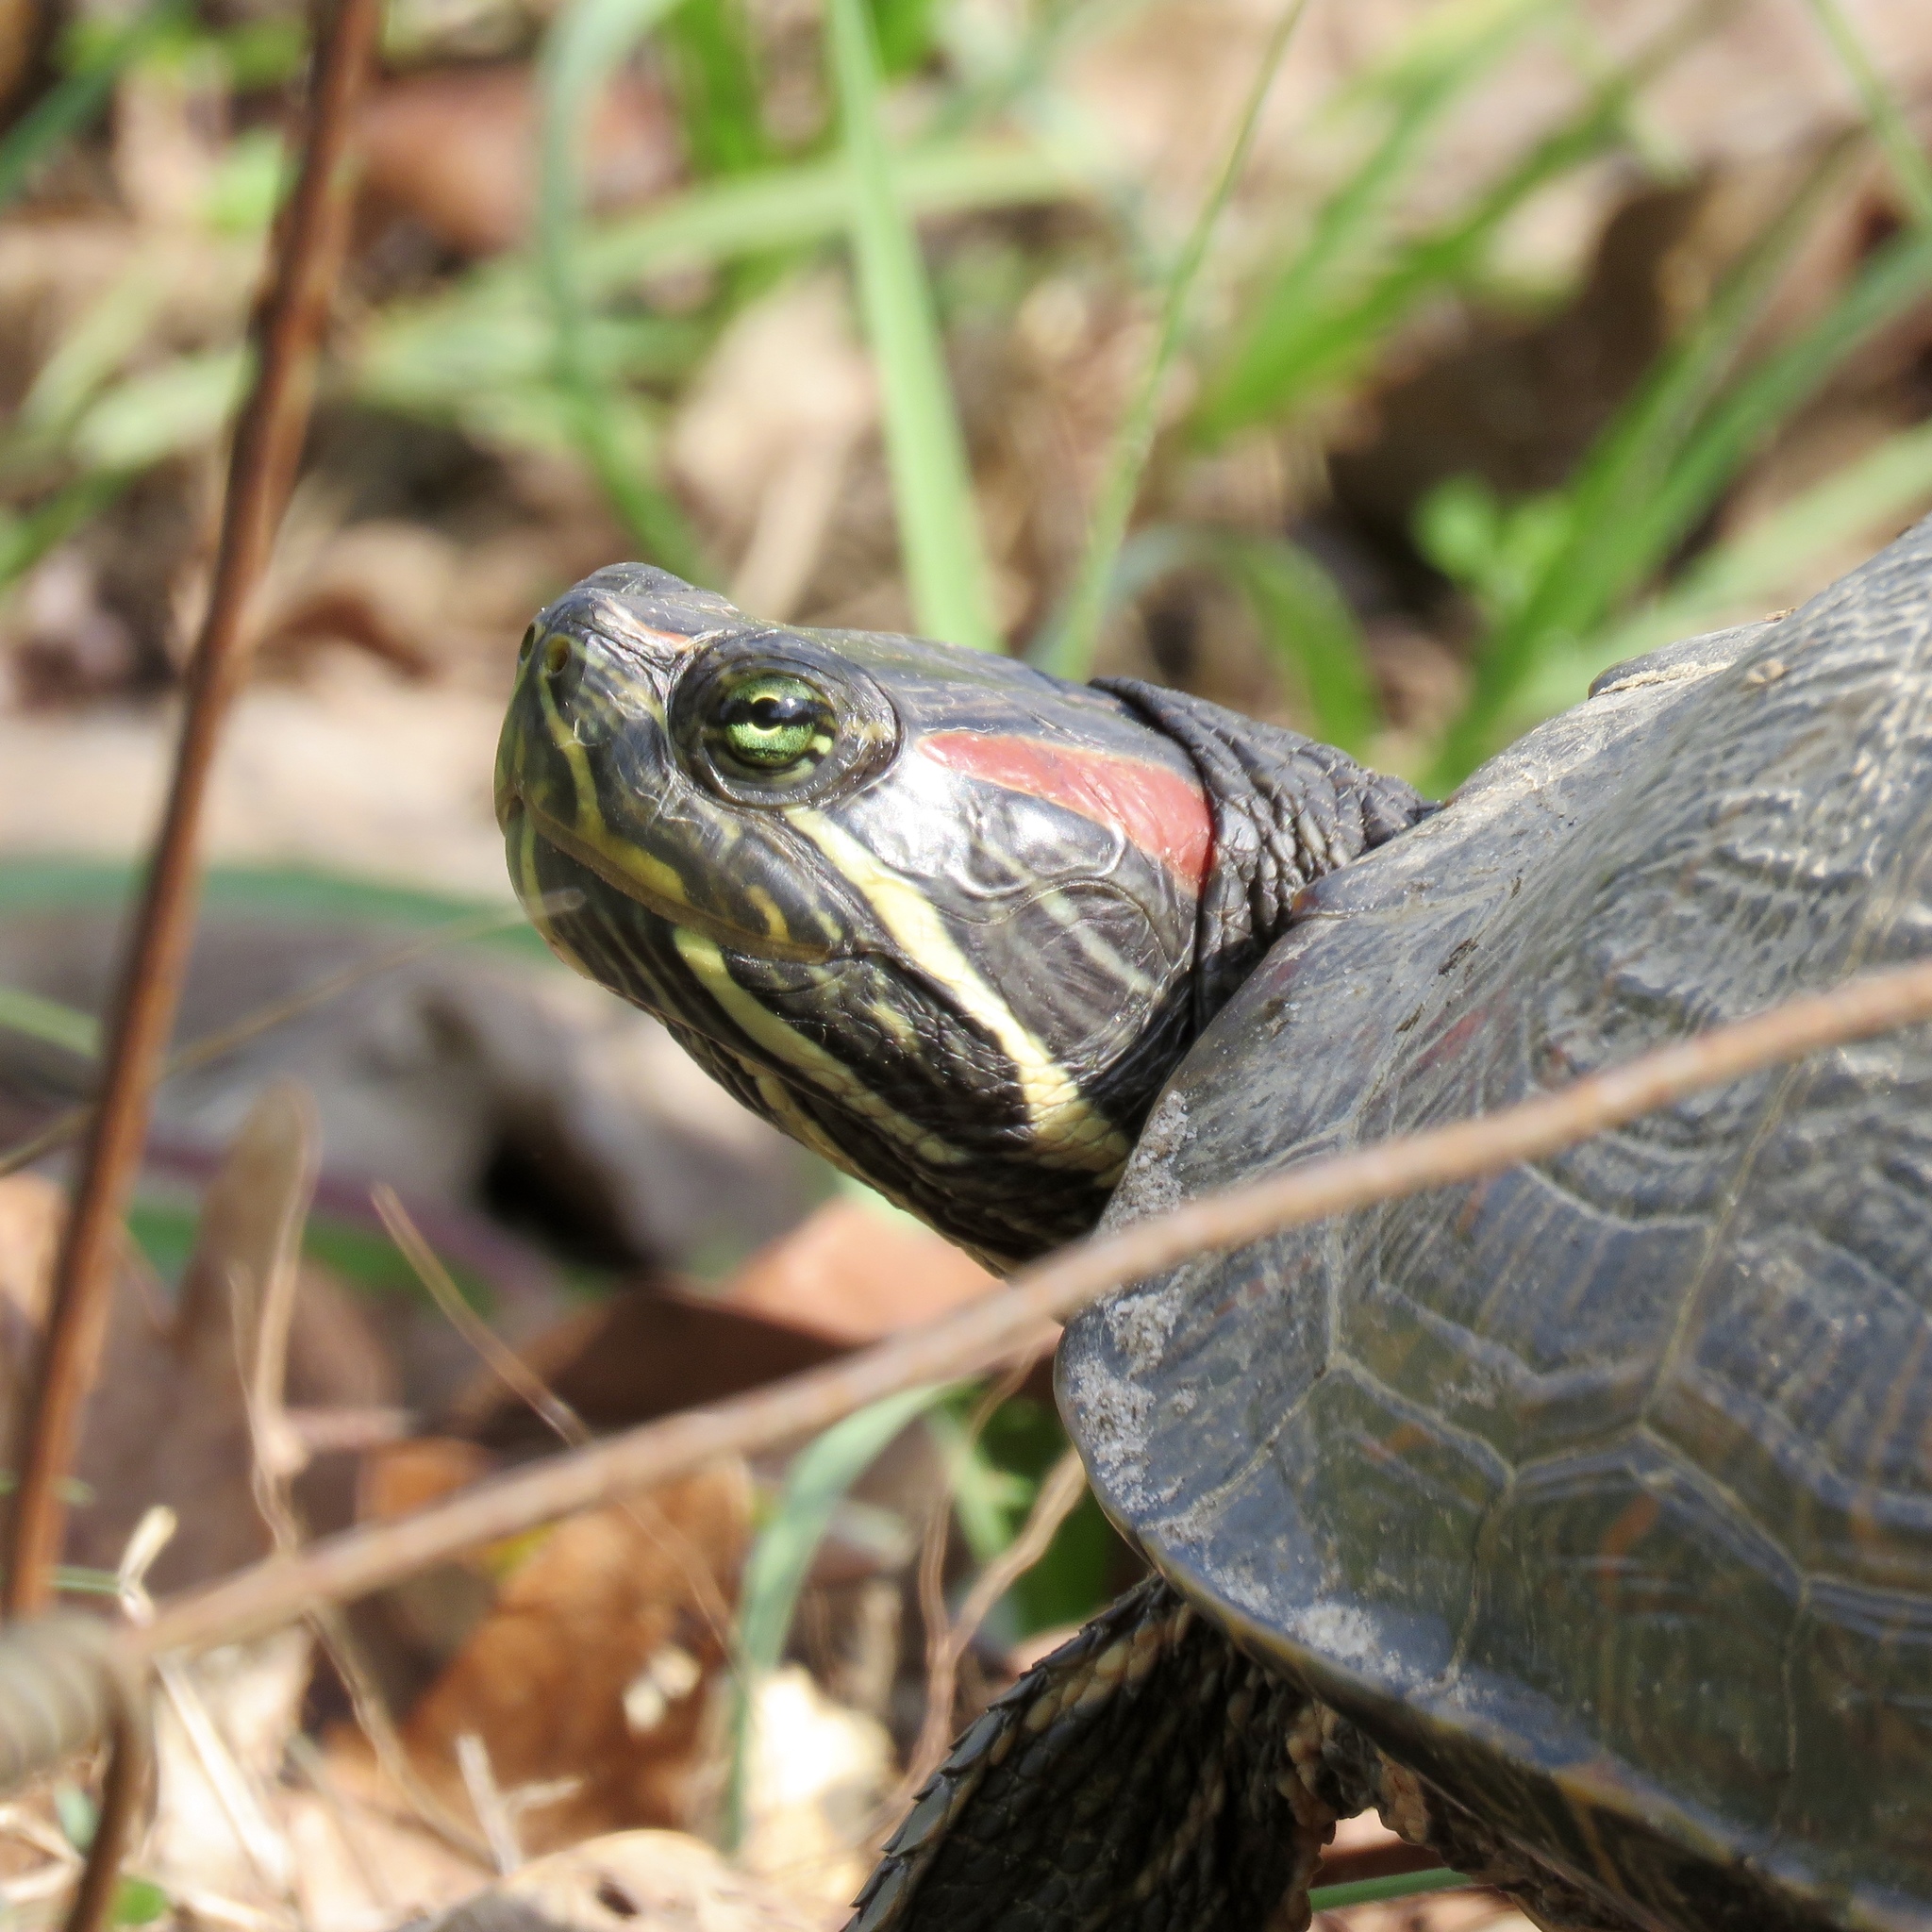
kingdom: Animalia
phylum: Chordata
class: Testudines
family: Emydidae
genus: Trachemys
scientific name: Trachemys scripta
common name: Slider
